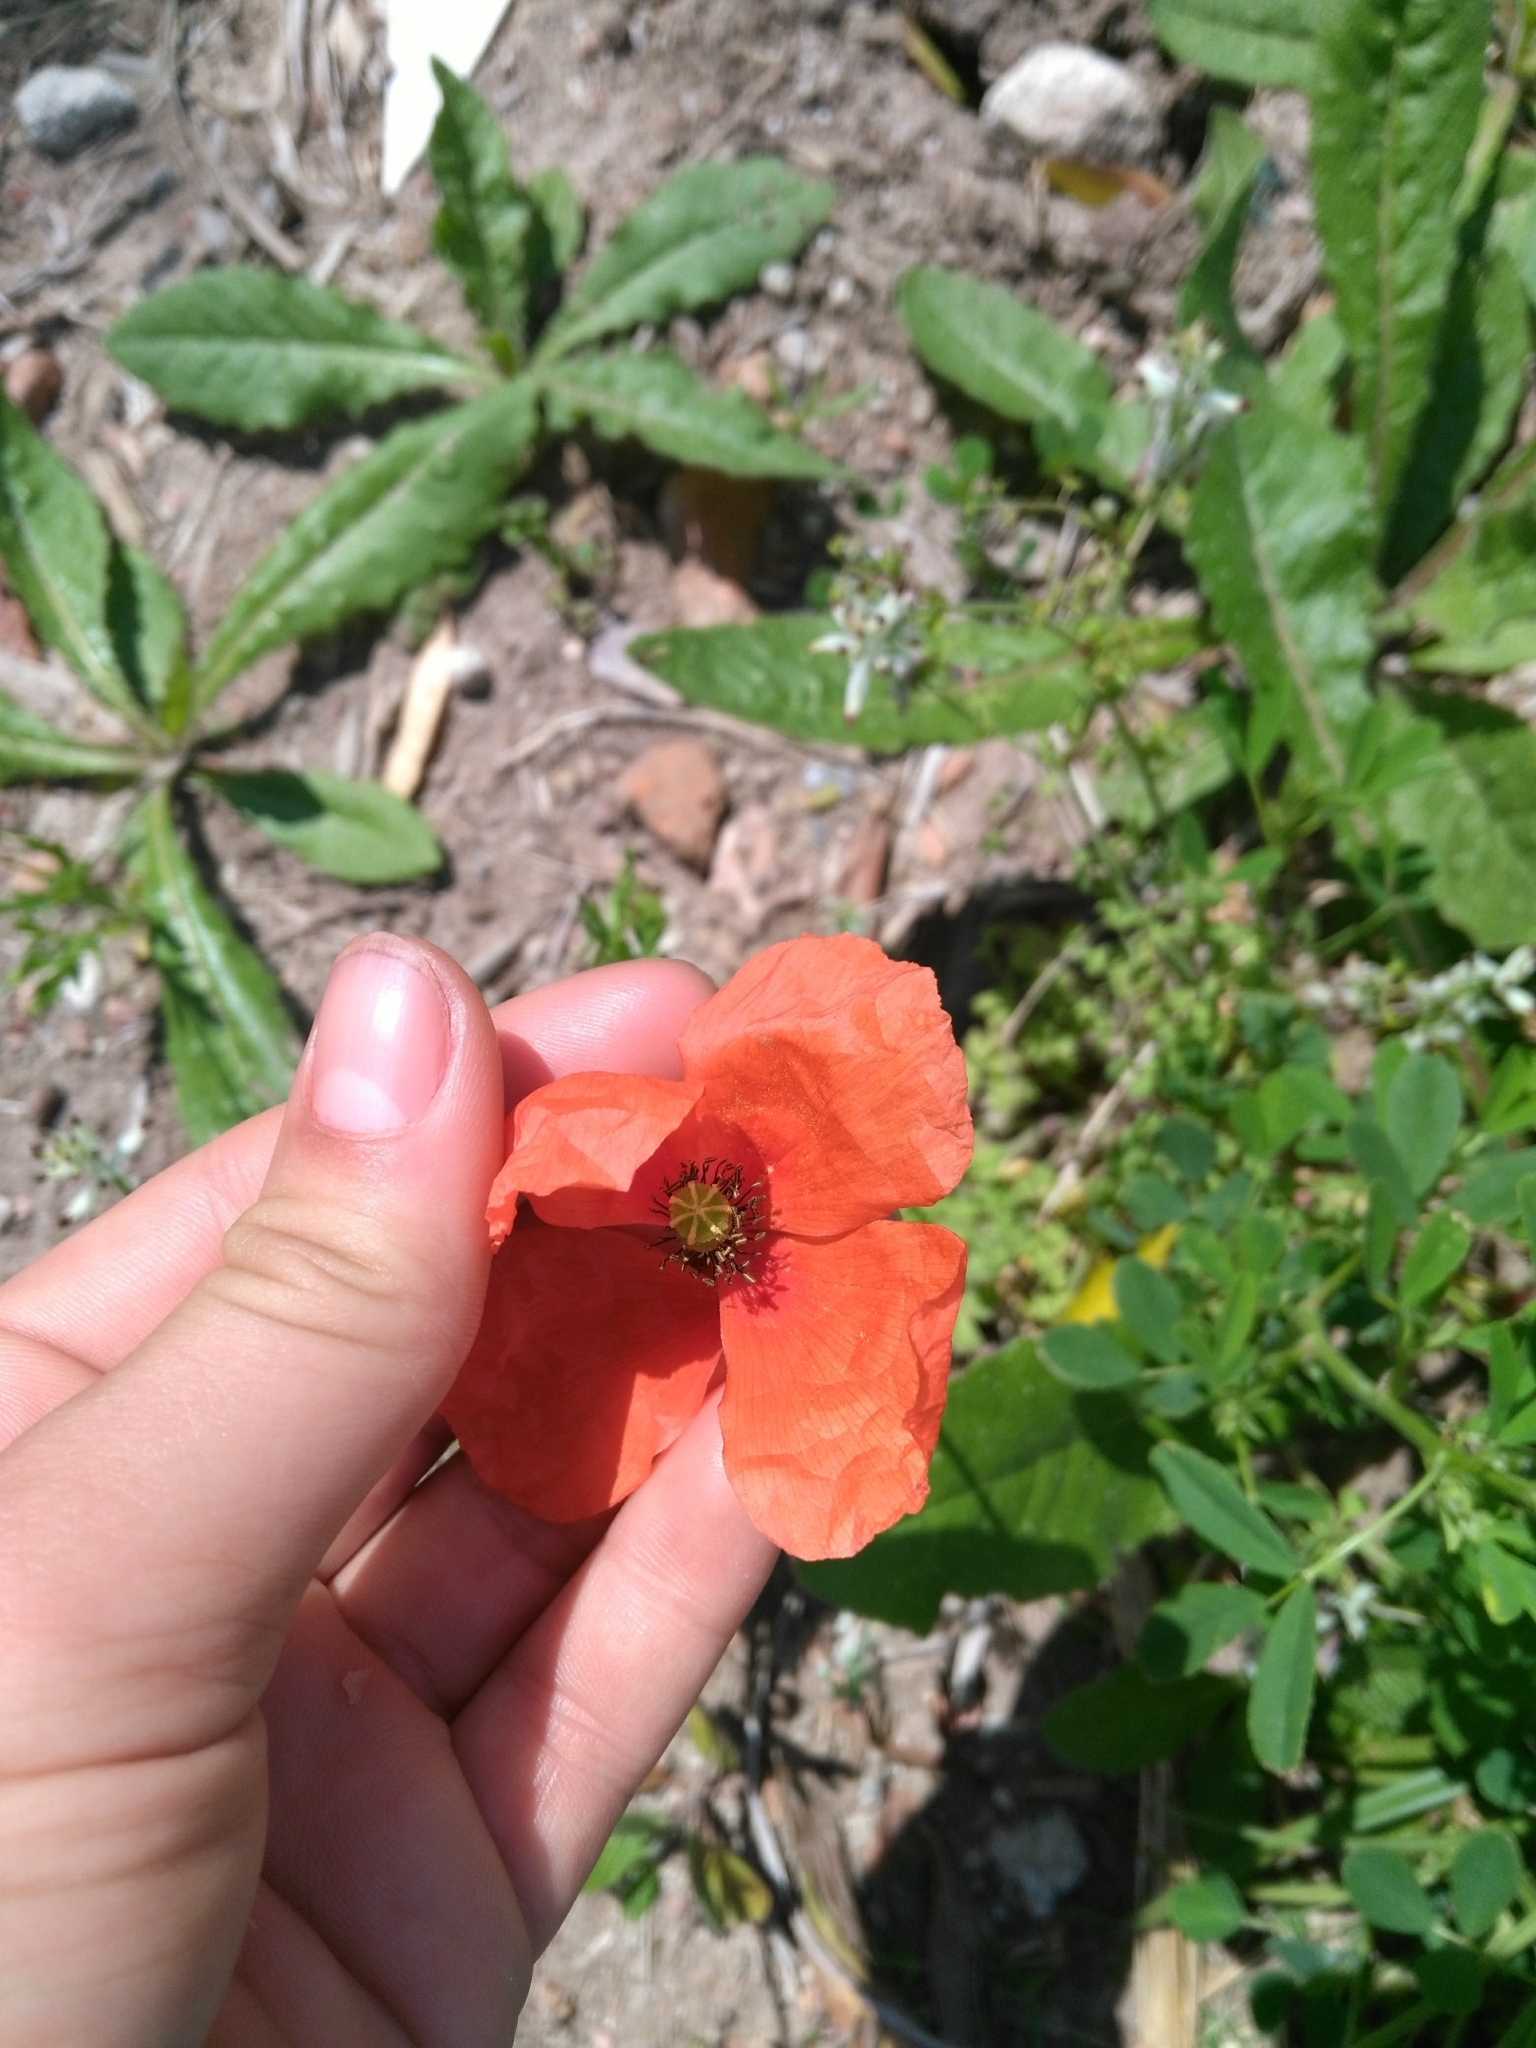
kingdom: Plantae
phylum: Tracheophyta
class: Magnoliopsida
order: Ranunculales
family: Papaveraceae
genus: Papaver
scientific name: Papaver dubium
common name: Long-headed poppy
